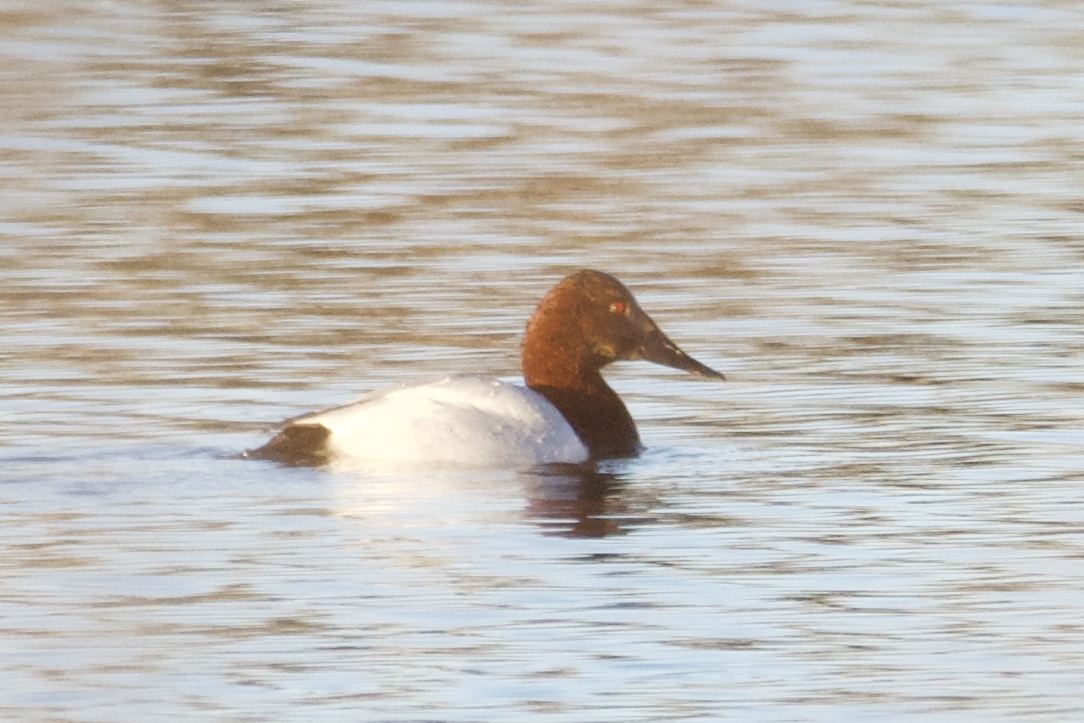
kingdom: Animalia
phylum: Chordata
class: Aves
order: Anseriformes
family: Anatidae
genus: Aythya
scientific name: Aythya valisineria
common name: Canvasback
